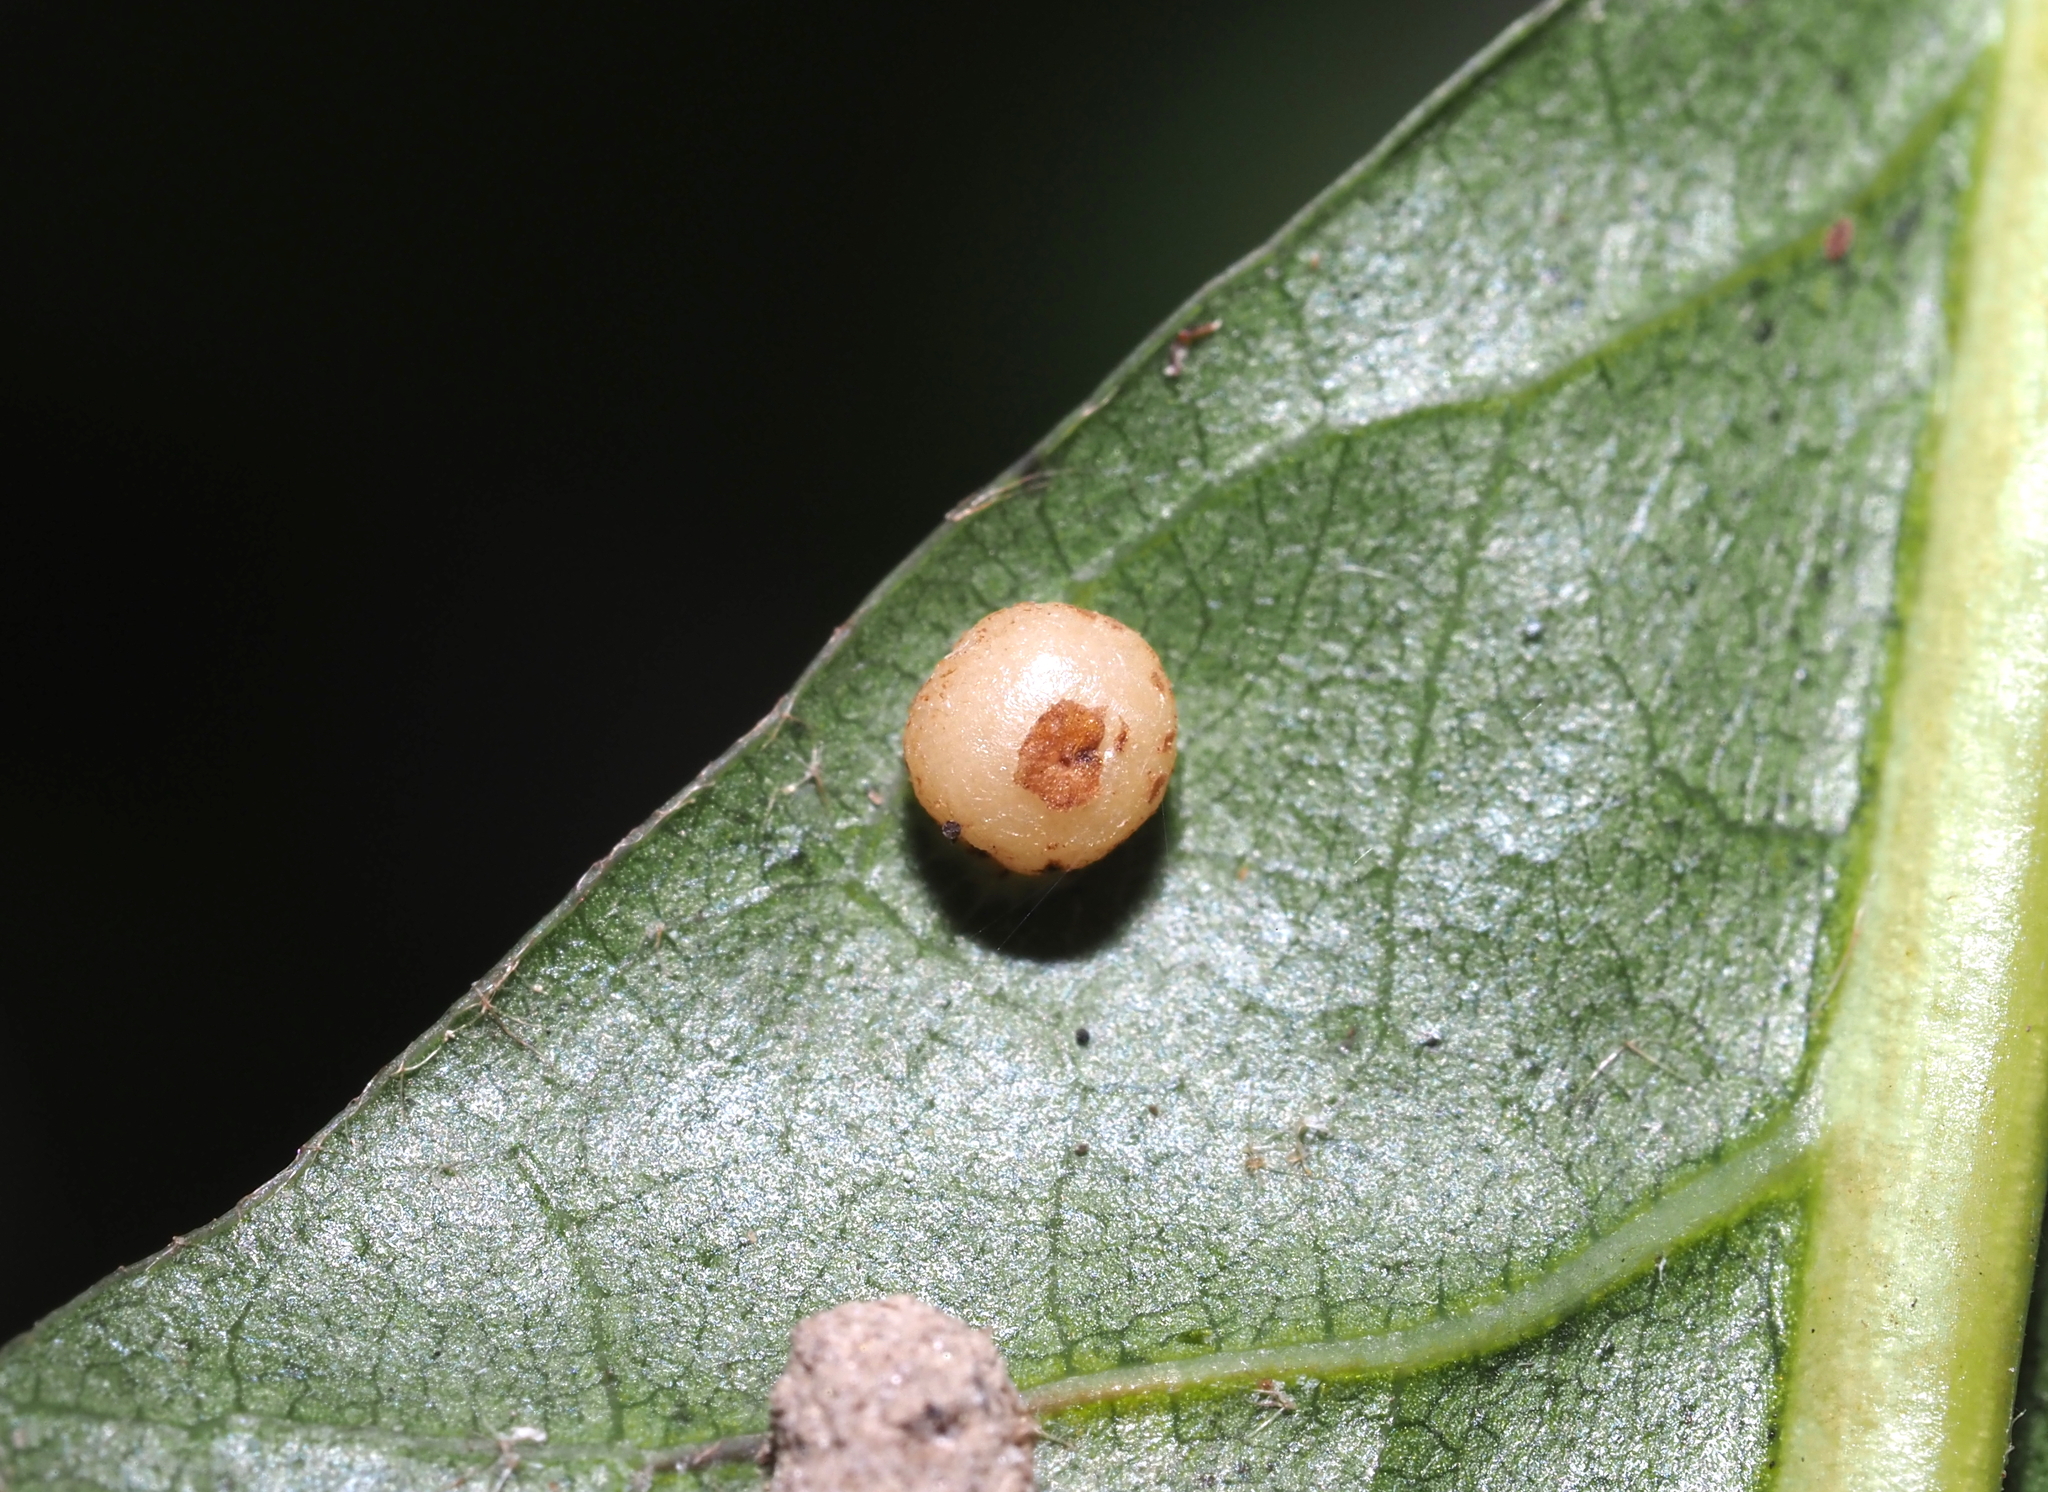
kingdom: Animalia
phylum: Arthropoda
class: Insecta
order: Diptera
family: Cecidomyiidae
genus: Polystepha
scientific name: Polystepha globosa
